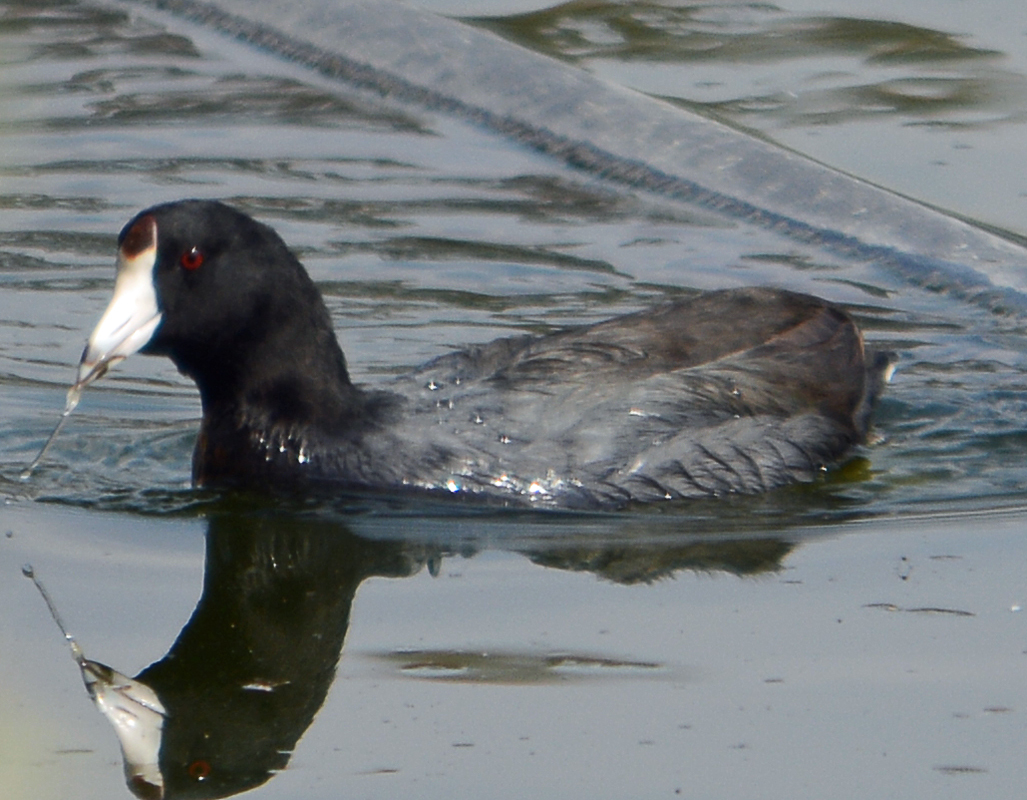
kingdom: Animalia
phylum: Chordata
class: Aves
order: Gruiformes
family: Rallidae
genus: Fulica
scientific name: Fulica americana
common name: American coot
